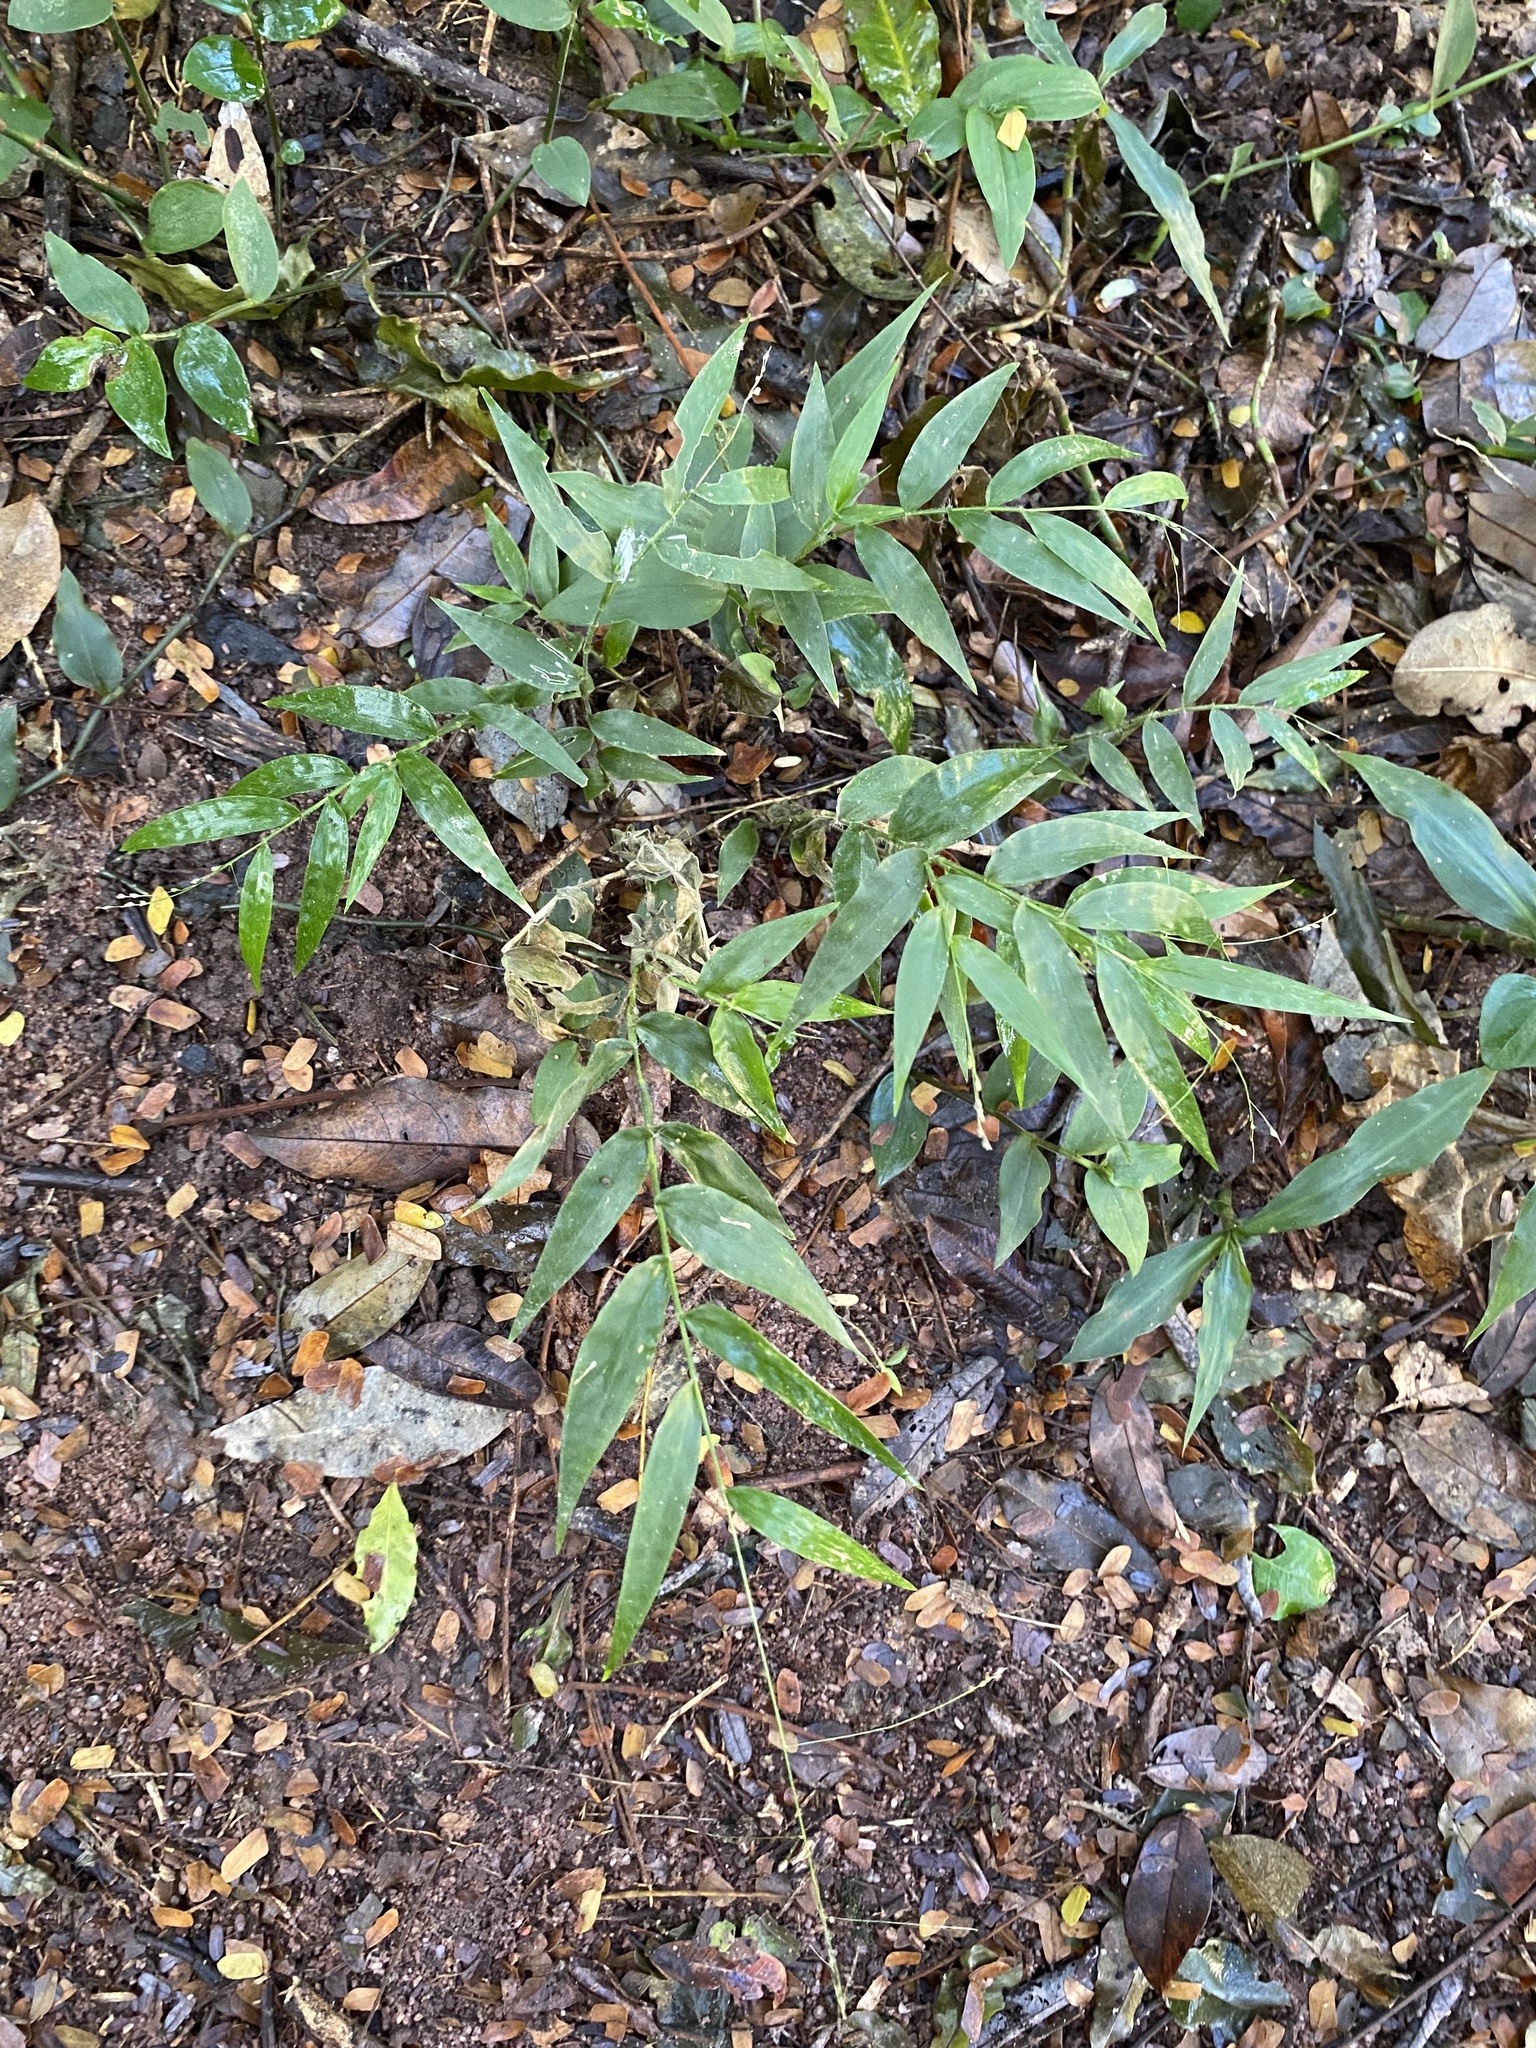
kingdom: Plantae
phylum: Tracheophyta
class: Liliopsida
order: Poales
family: Poaceae
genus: Oplismenus
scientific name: Oplismenus hirtellus
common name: Basketgrass
